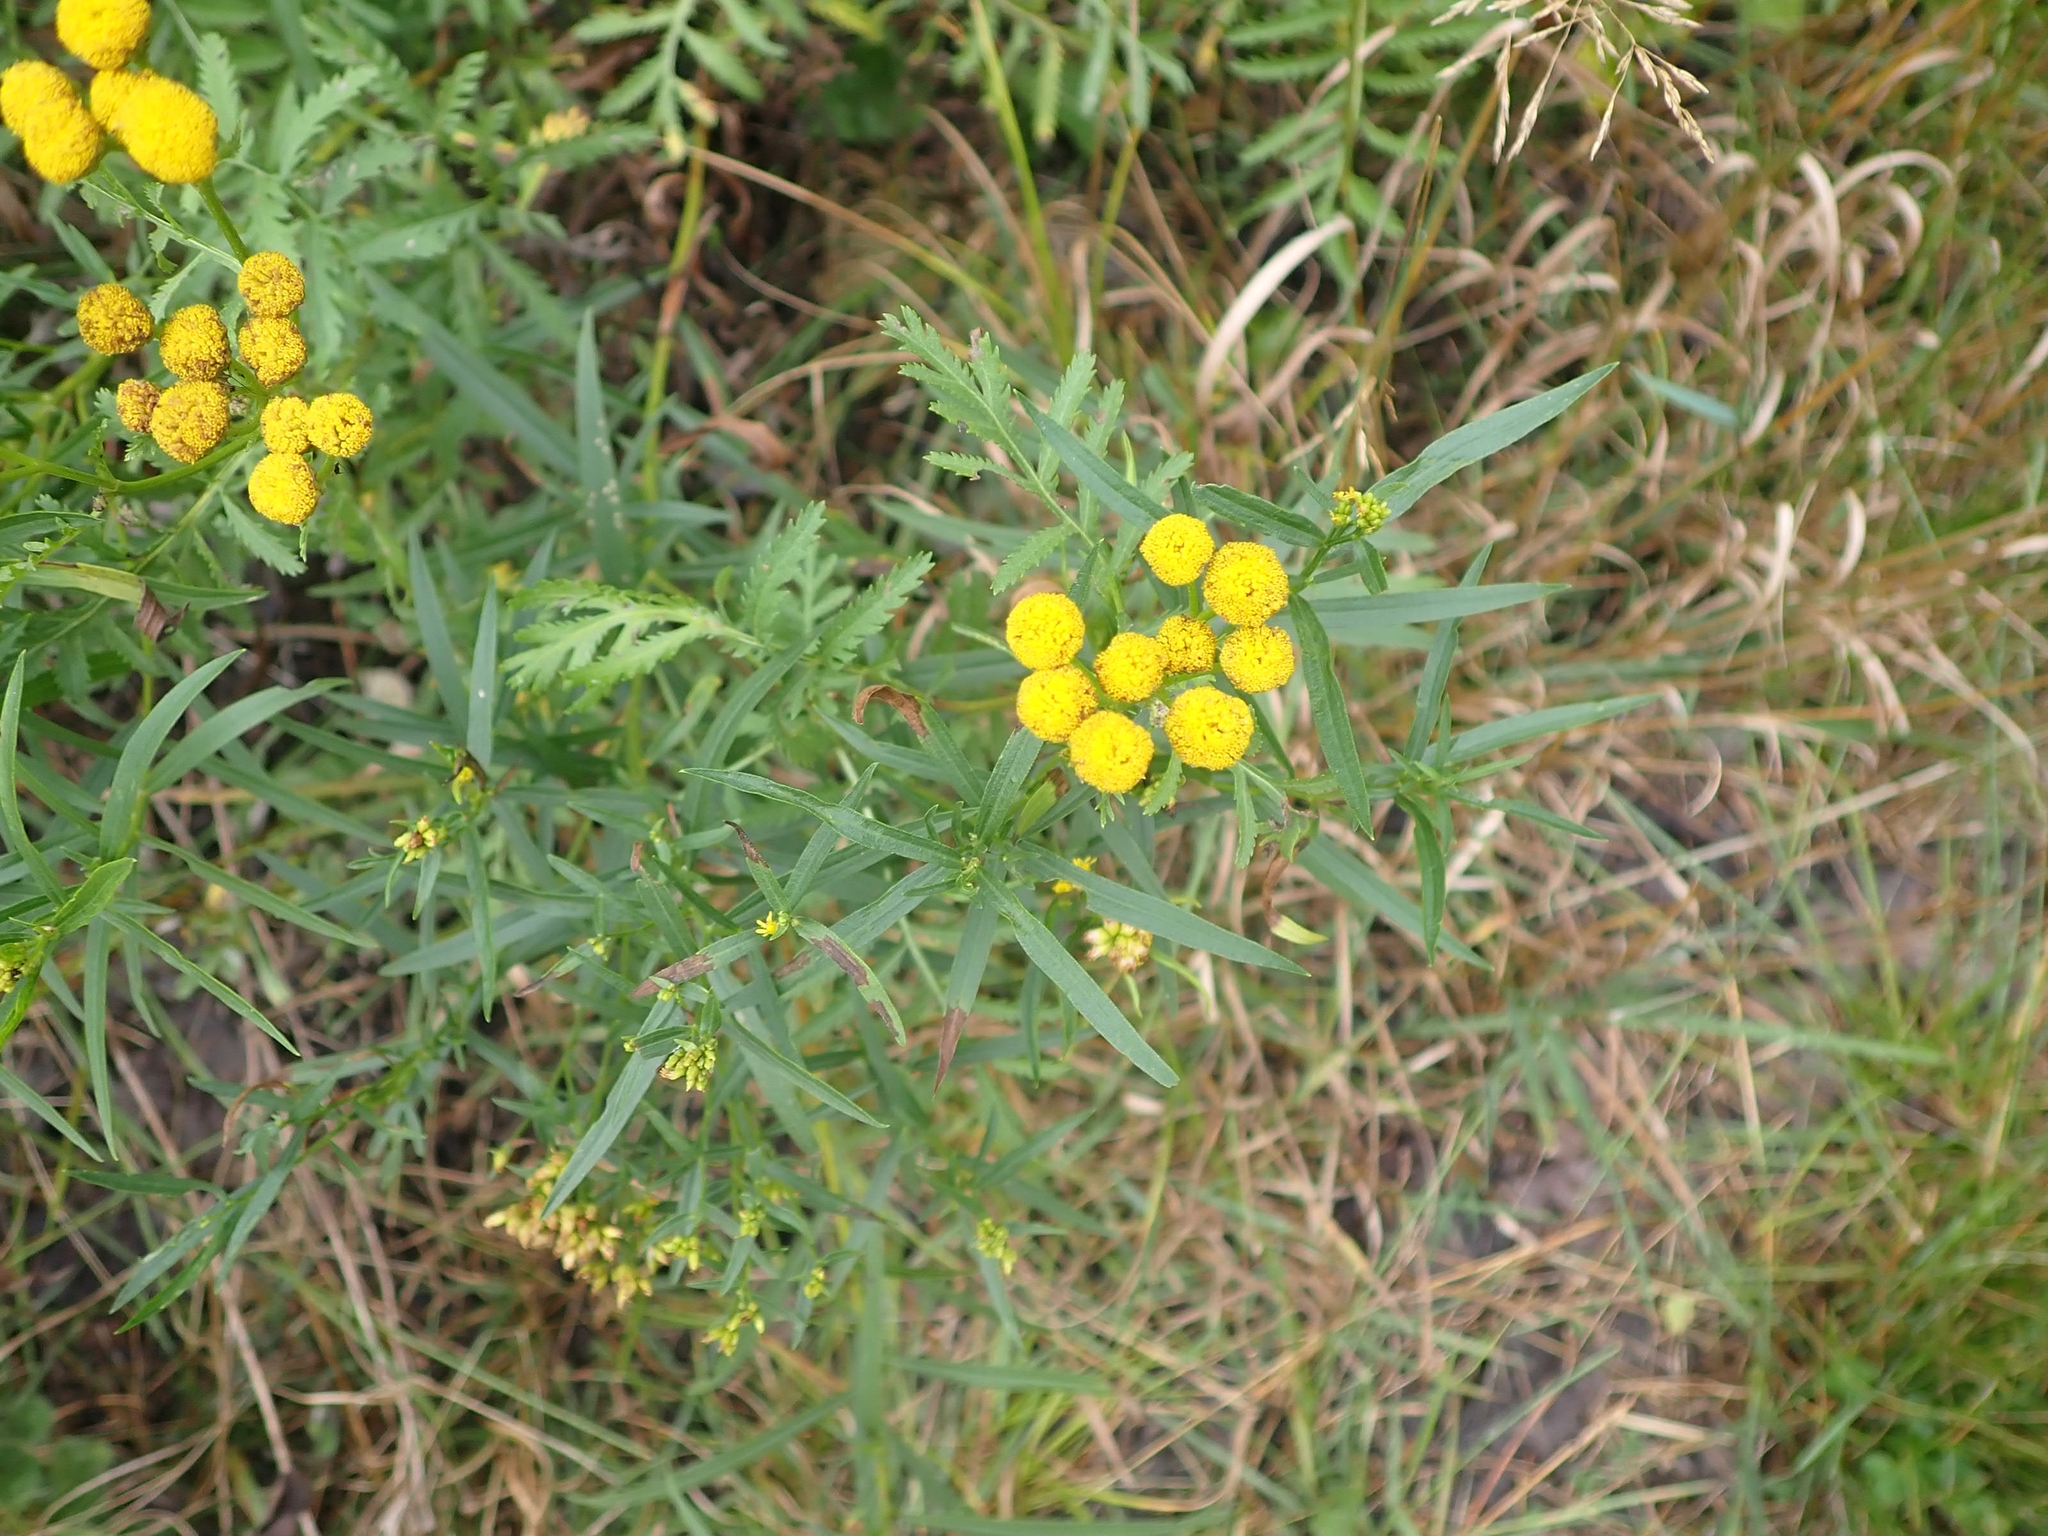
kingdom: Plantae
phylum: Tracheophyta
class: Magnoliopsida
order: Asterales
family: Asteraceae
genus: Tanacetum
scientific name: Tanacetum vulgare
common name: Common tansy
